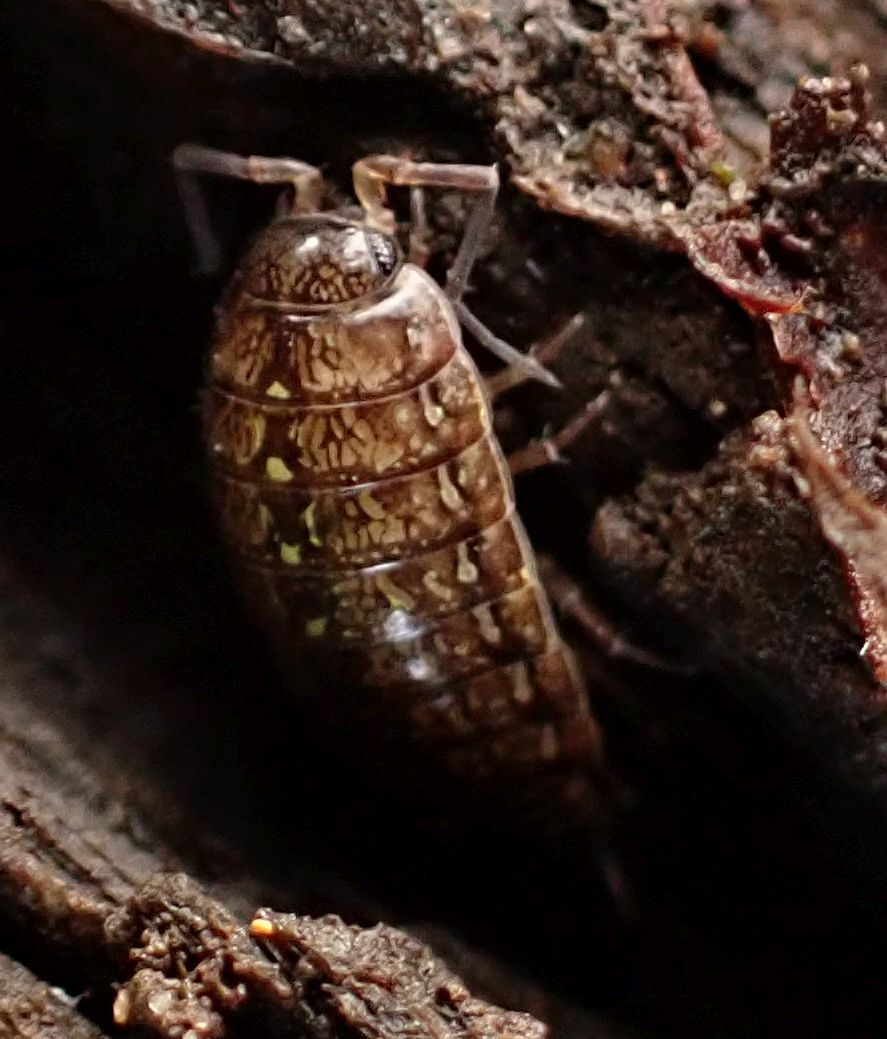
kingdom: Animalia
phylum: Arthropoda
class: Malacostraca
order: Isopoda
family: Philosciidae
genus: Philoscia
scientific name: Philoscia affinis
